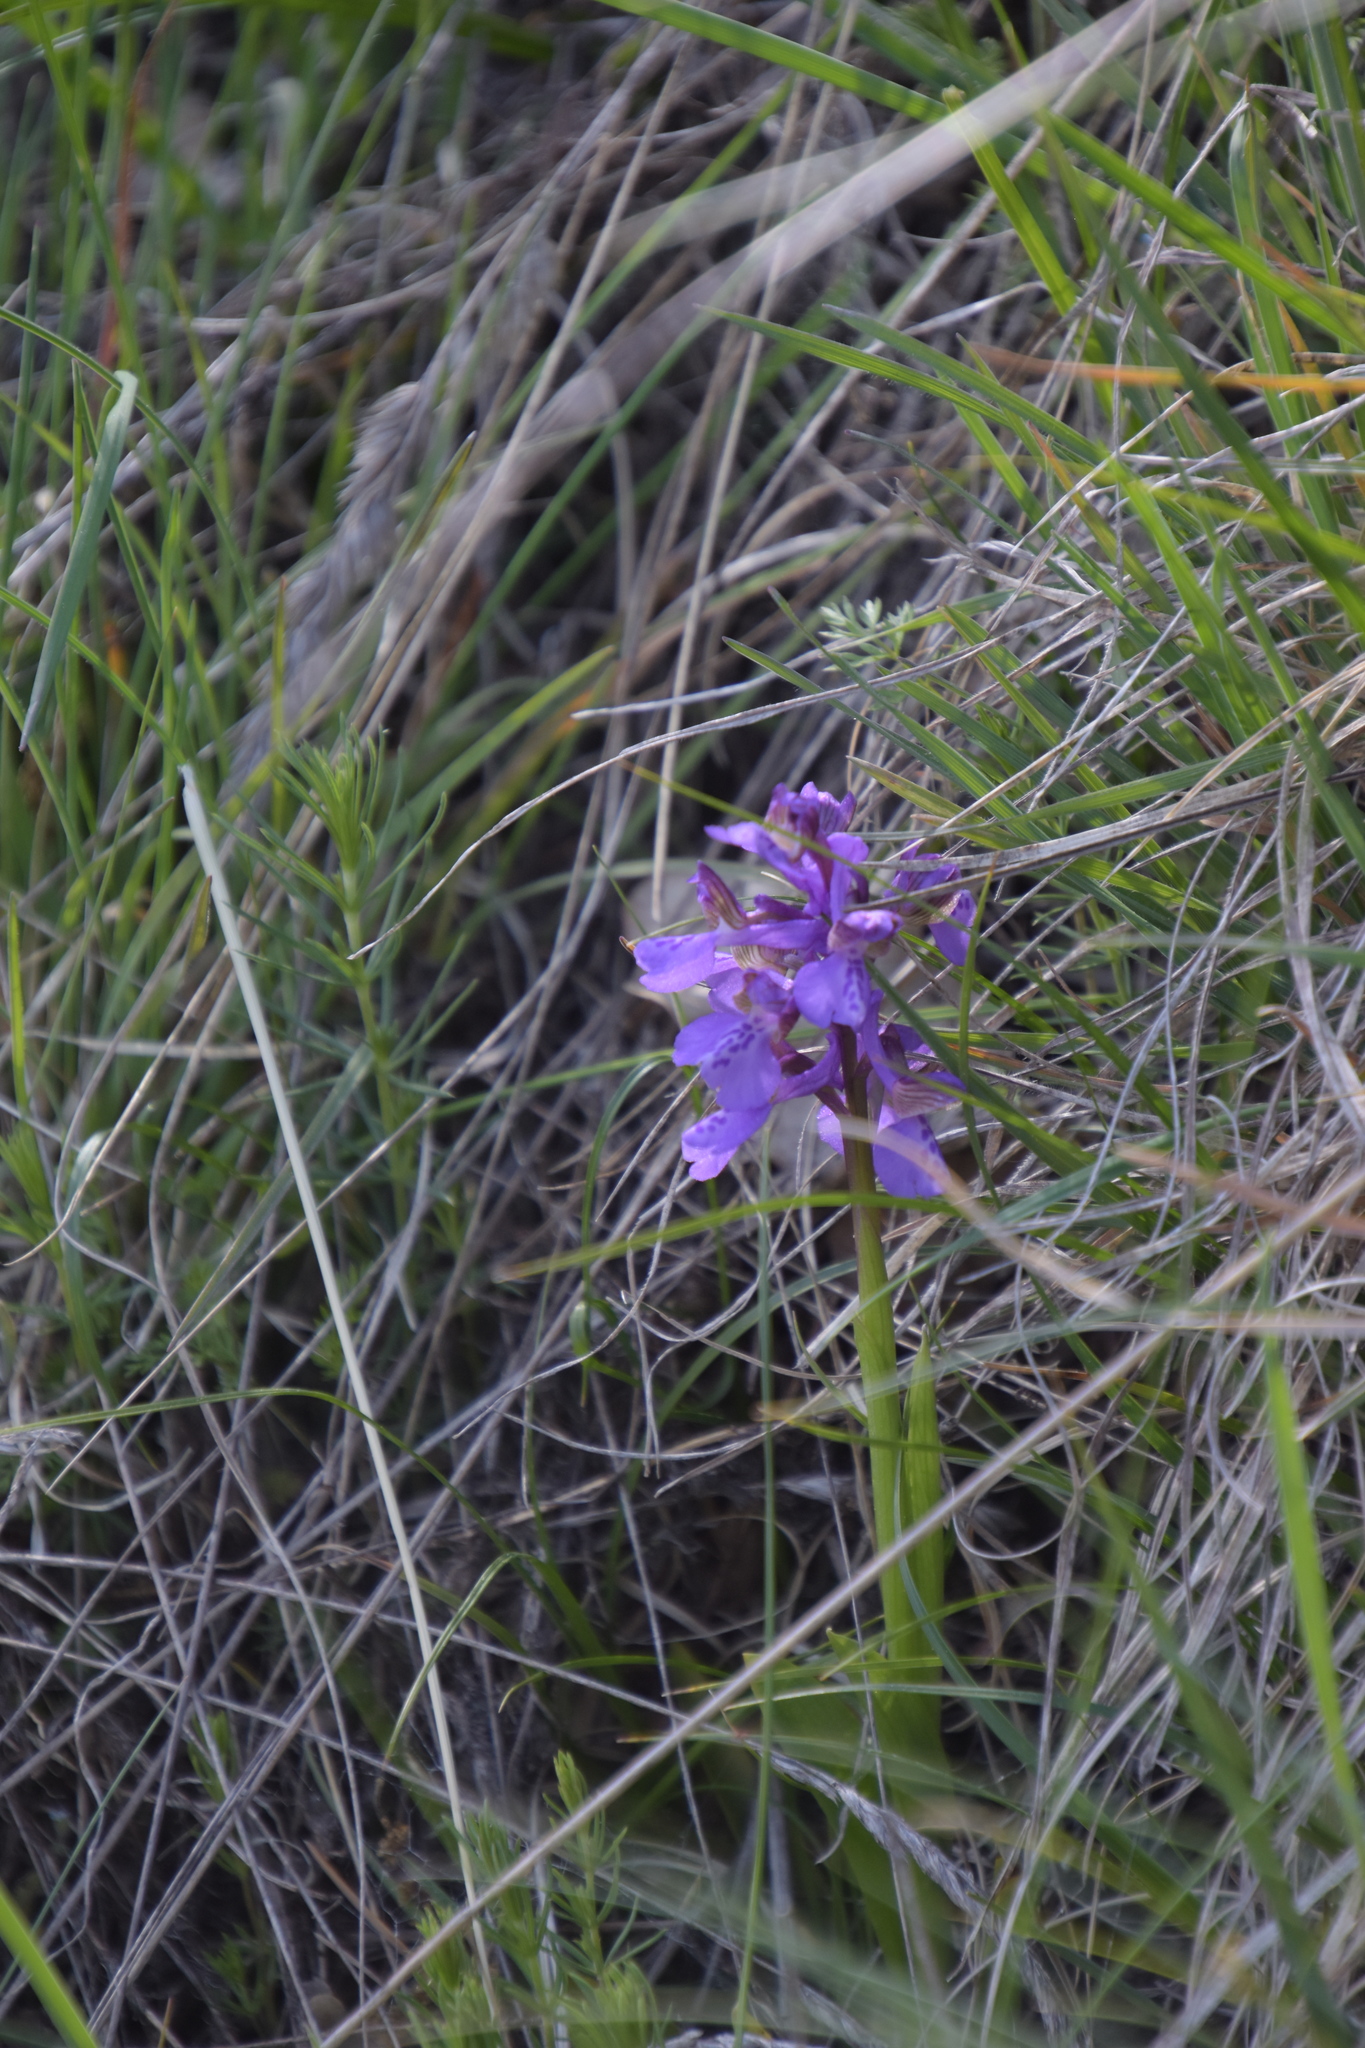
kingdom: Plantae
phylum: Tracheophyta
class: Liliopsida
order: Asparagales
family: Orchidaceae
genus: Anacamptis
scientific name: Anacamptis morio
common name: Green-winged orchid
